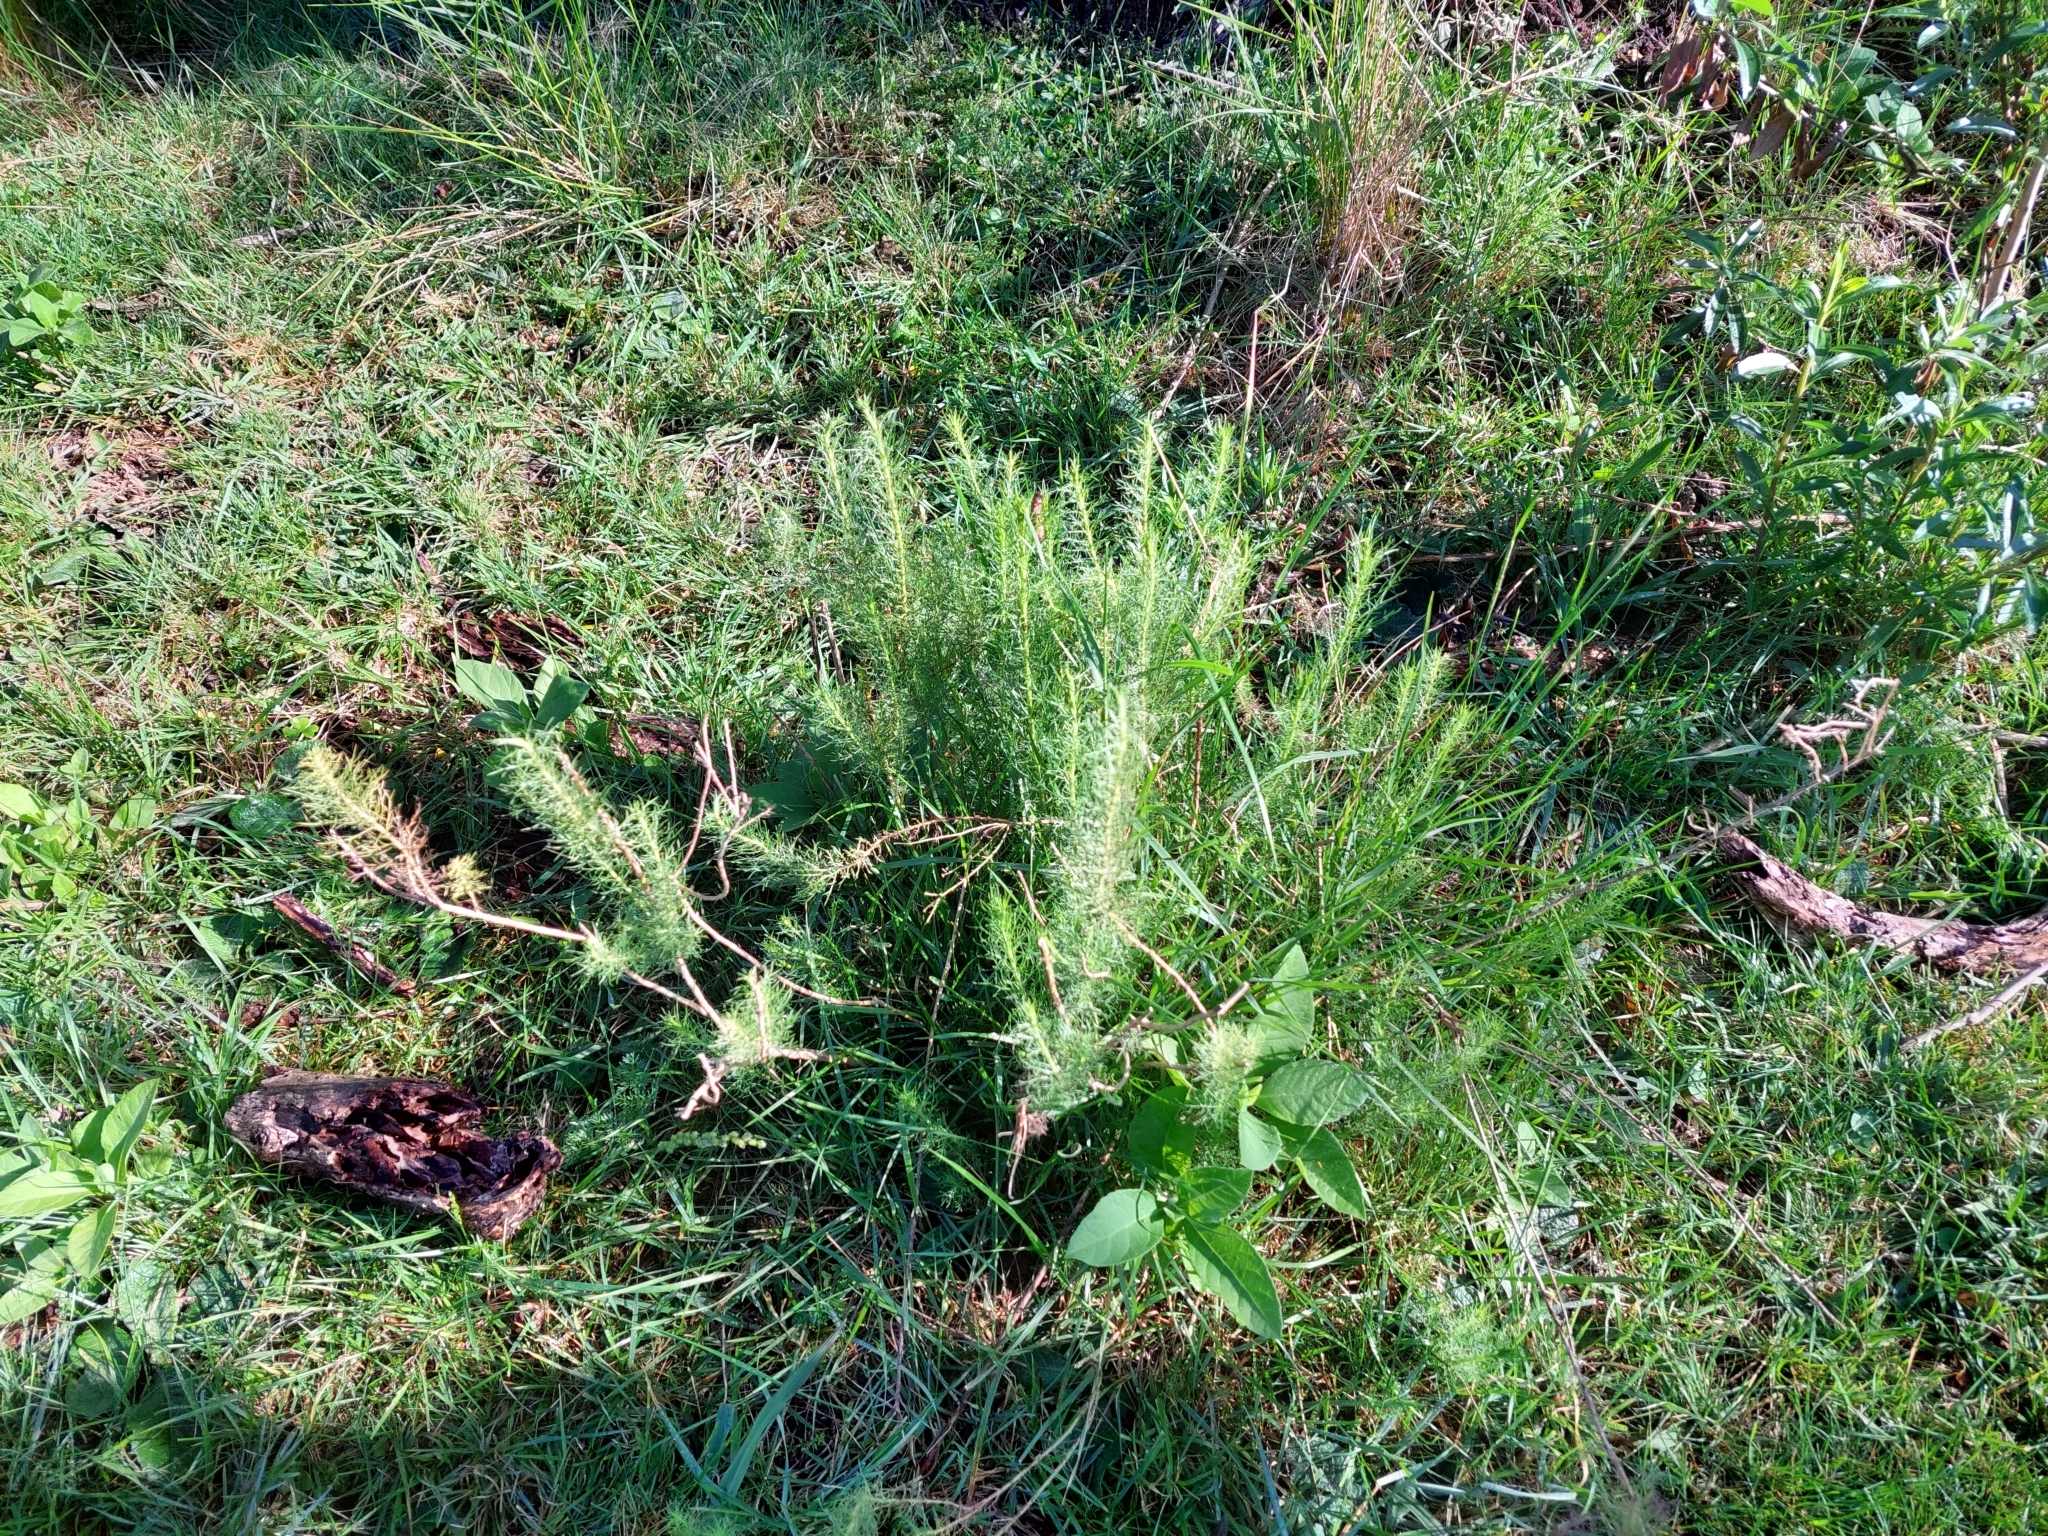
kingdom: Plantae
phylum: Tracheophyta
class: Magnoliopsida
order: Asterales
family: Asteraceae
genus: Baccharis
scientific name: Baccharis coridifolia
